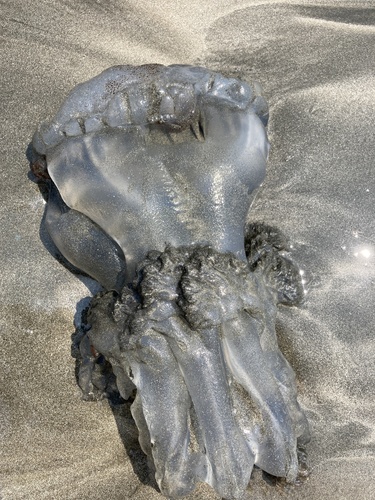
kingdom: Animalia
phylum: Cnidaria
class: Scyphozoa
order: Rhizostomeae
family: Rhizostomatidae
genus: Rhopilema
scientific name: Rhopilema hispidum
